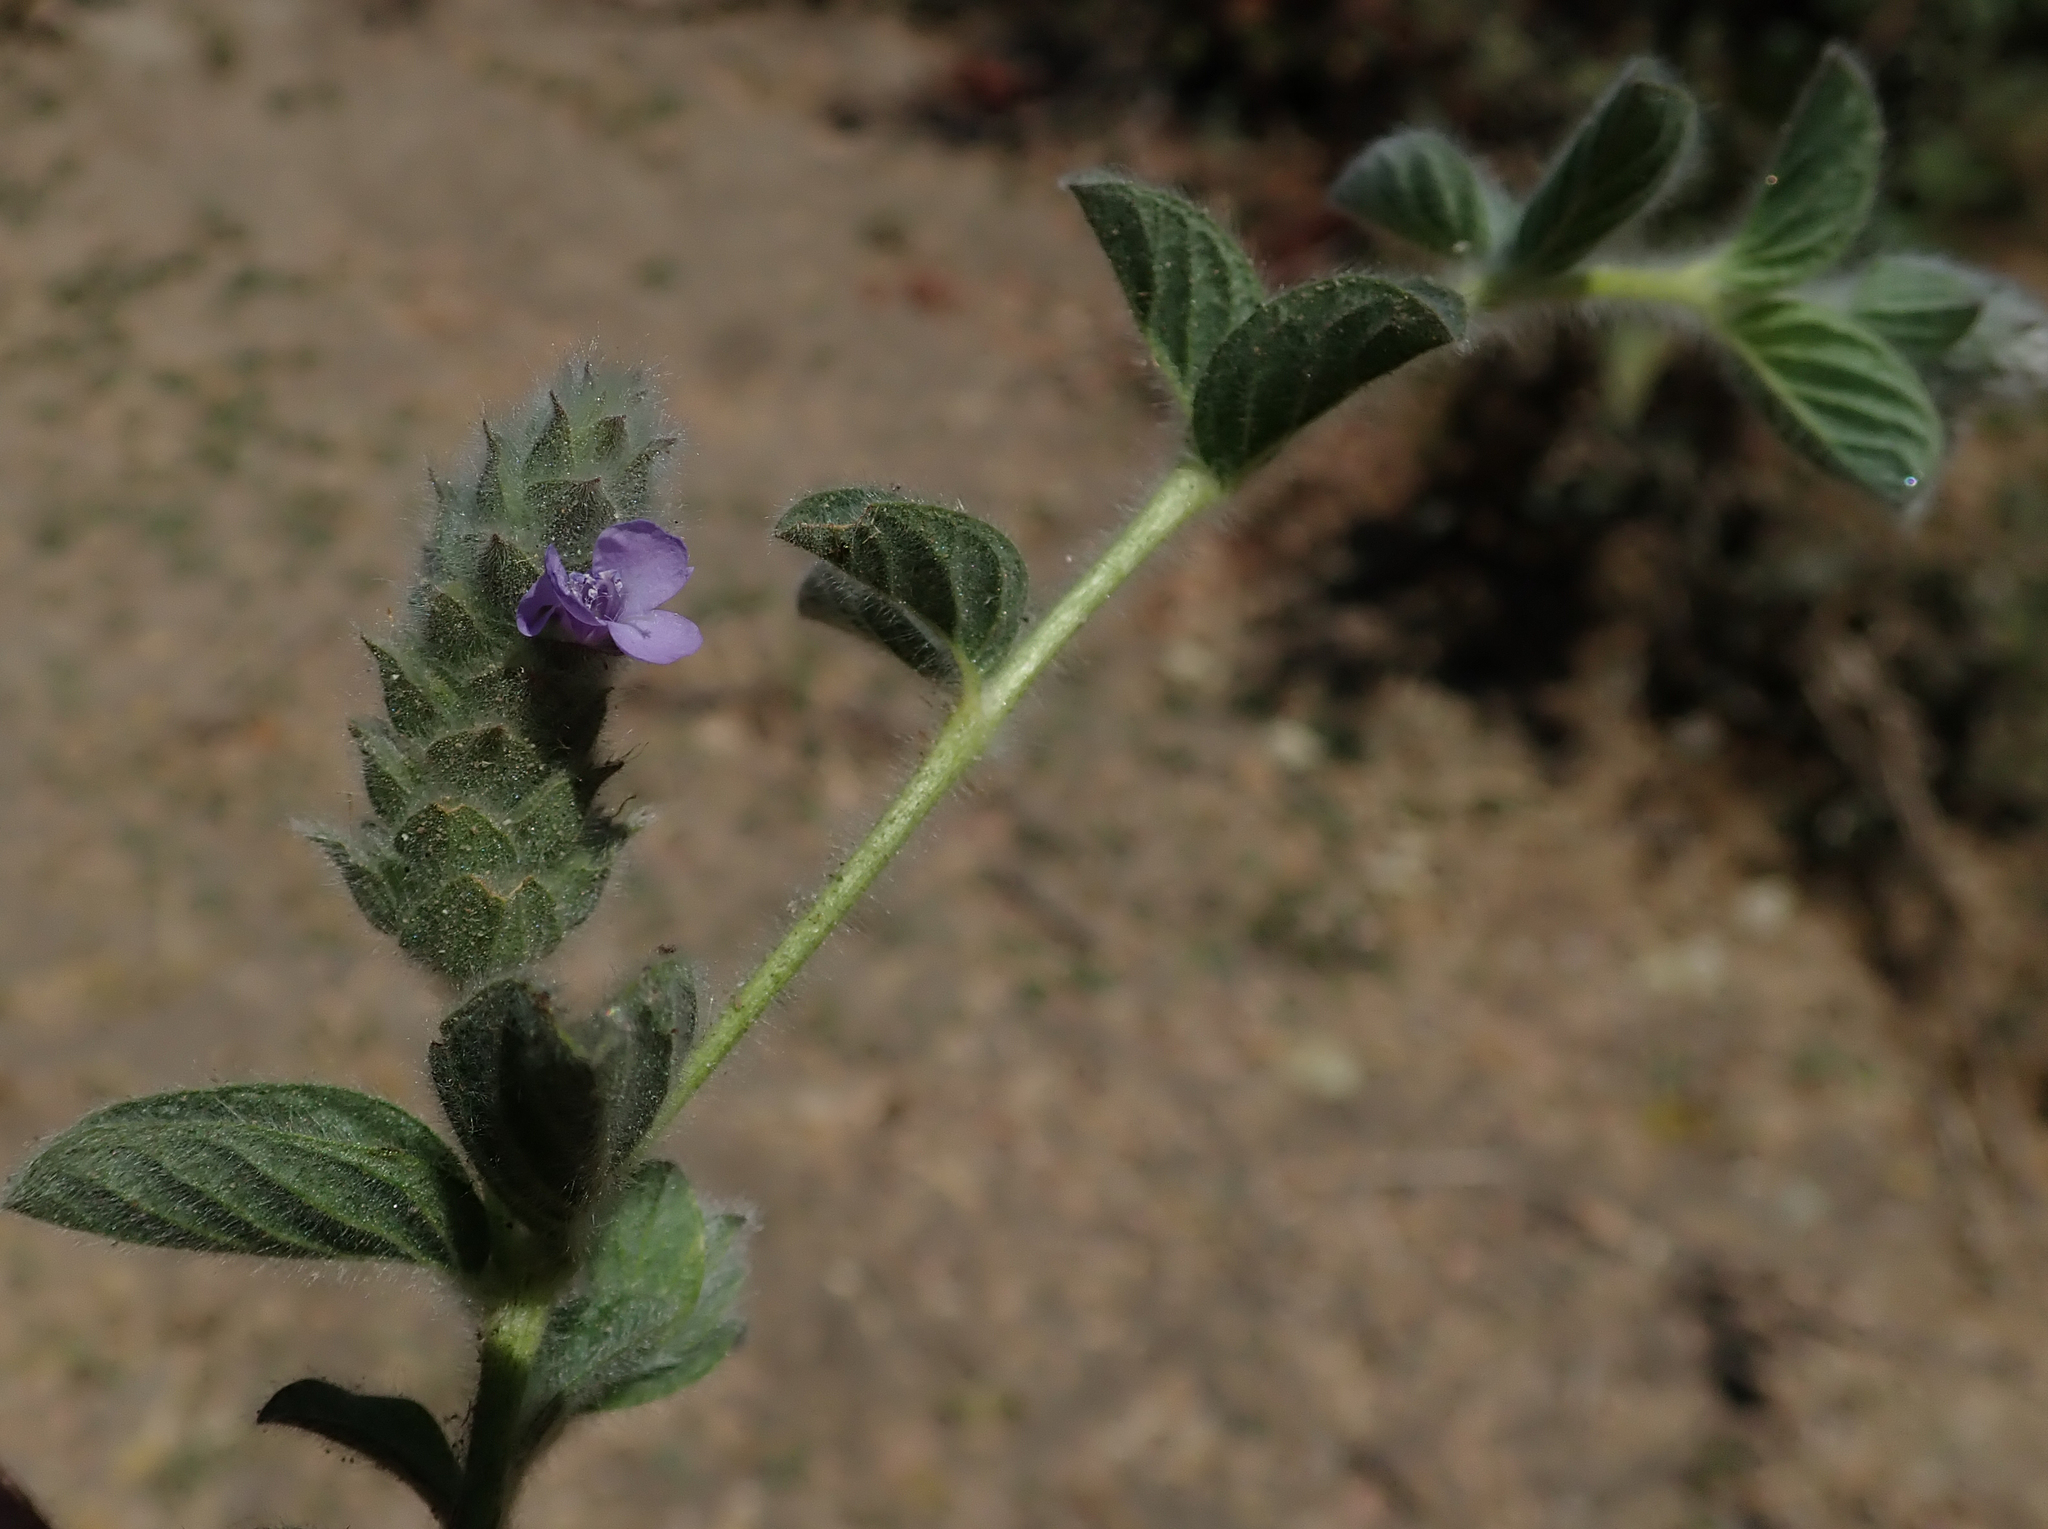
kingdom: Plantae
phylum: Tracheophyta
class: Magnoliopsida
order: Lamiales
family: Acanthaceae
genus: Nelsonia
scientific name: Nelsonia canescens
